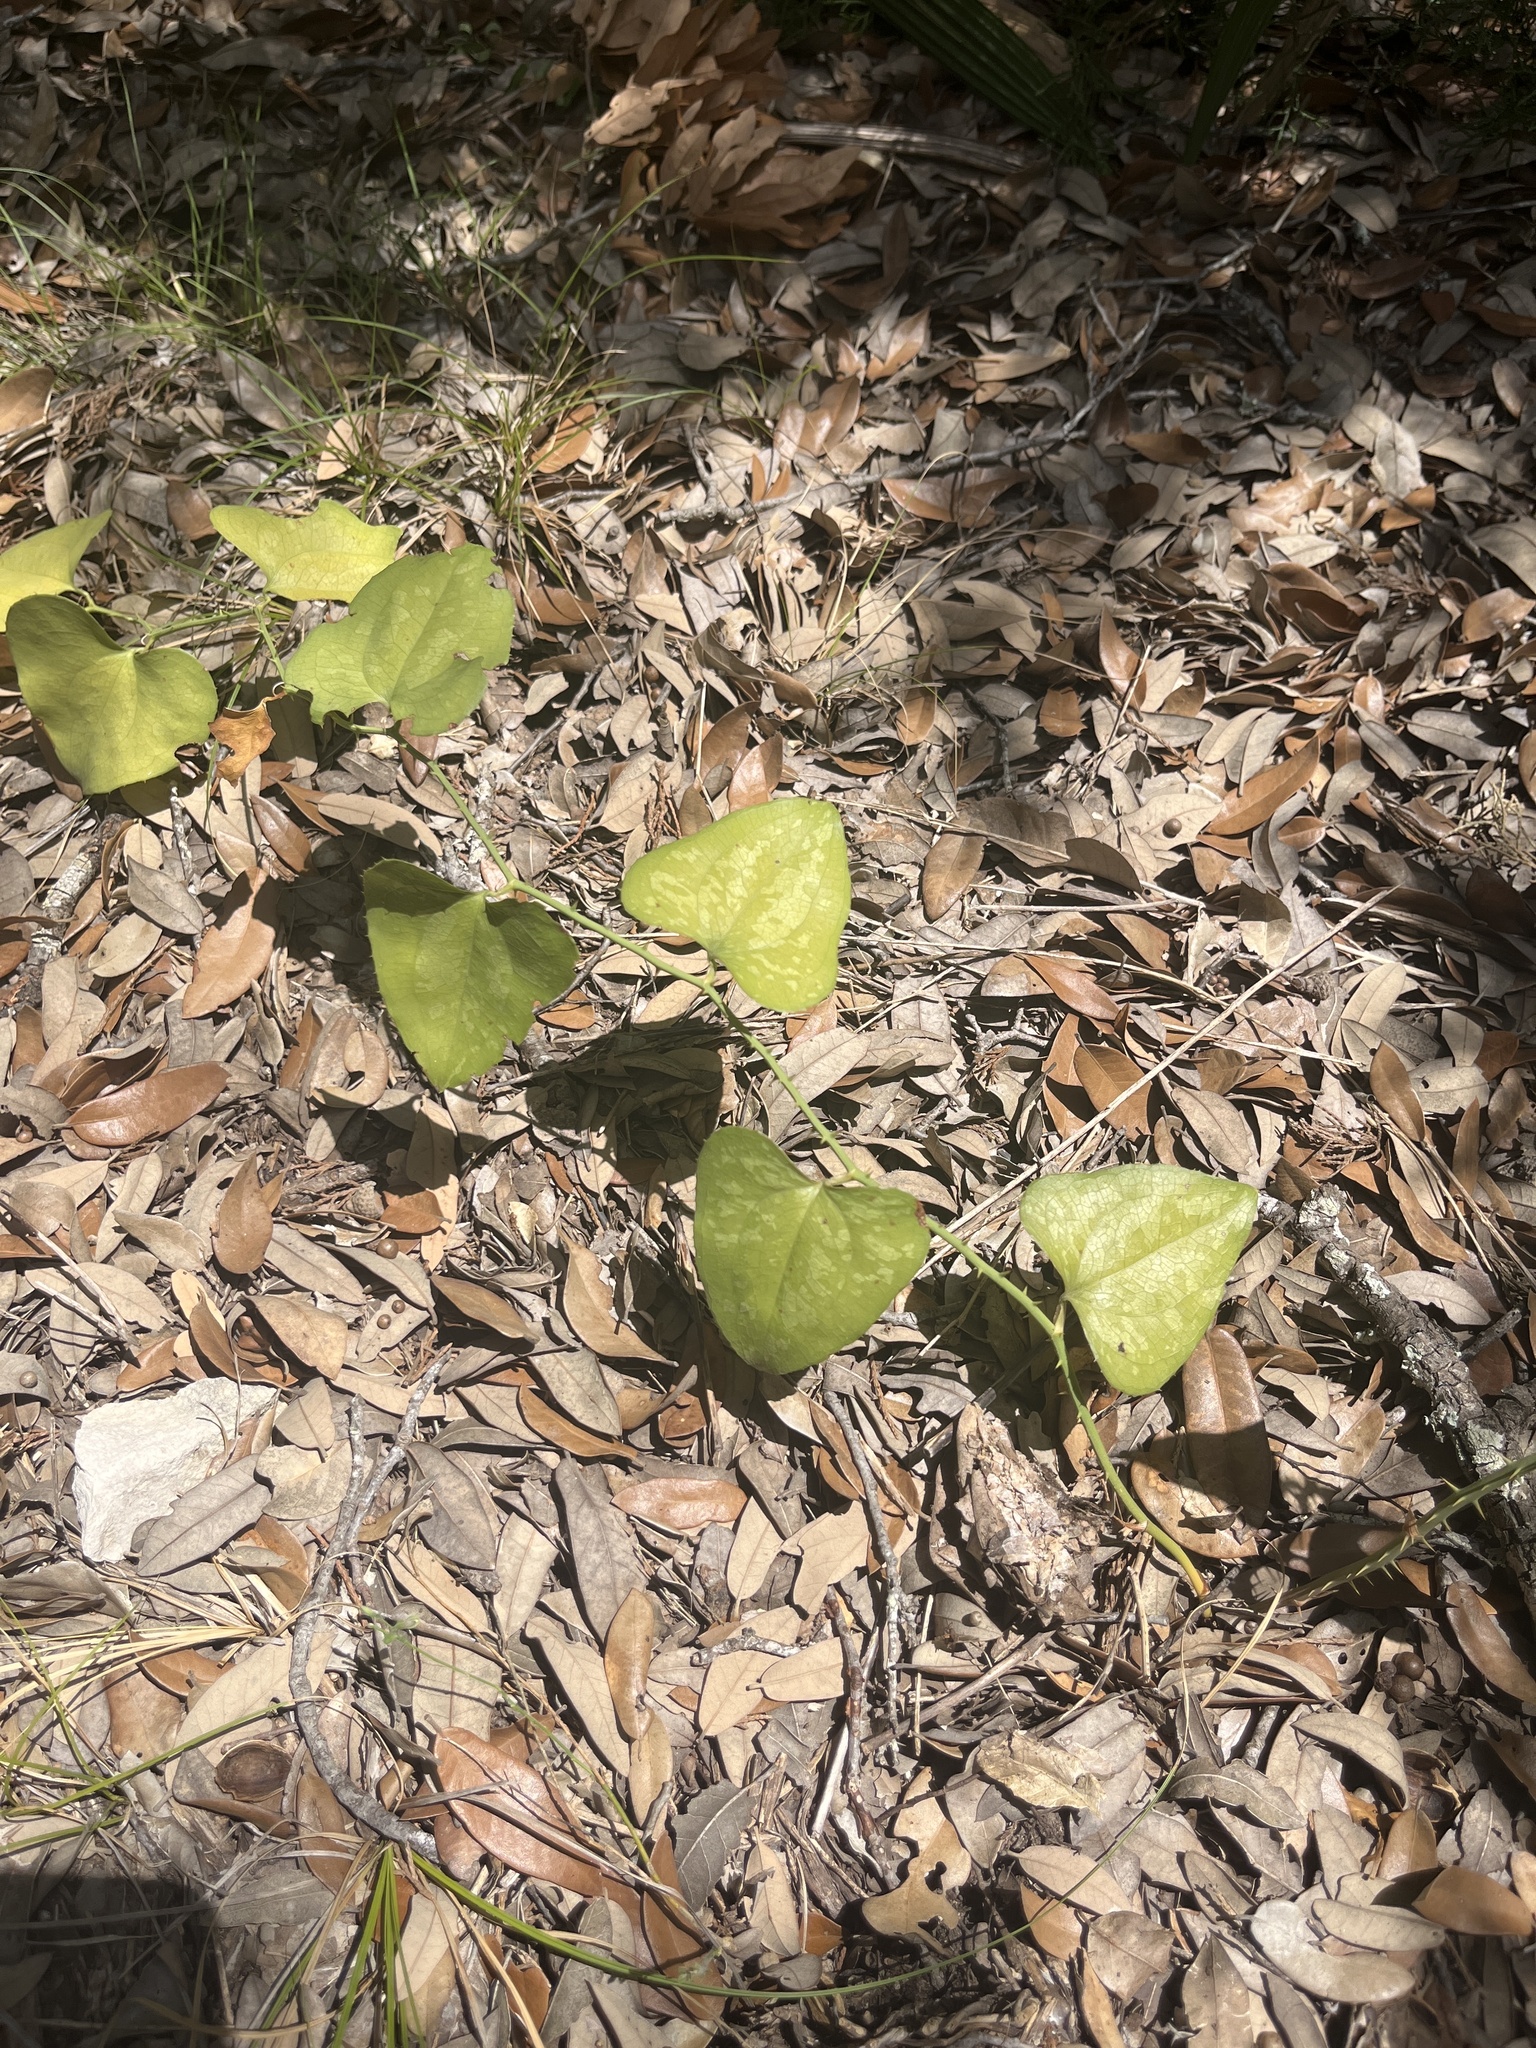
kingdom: Plantae
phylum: Tracheophyta
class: Liliopsida
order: Liliales
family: Smilacaceae
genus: Smilax
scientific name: Smilax bona-nox
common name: Catbrier
